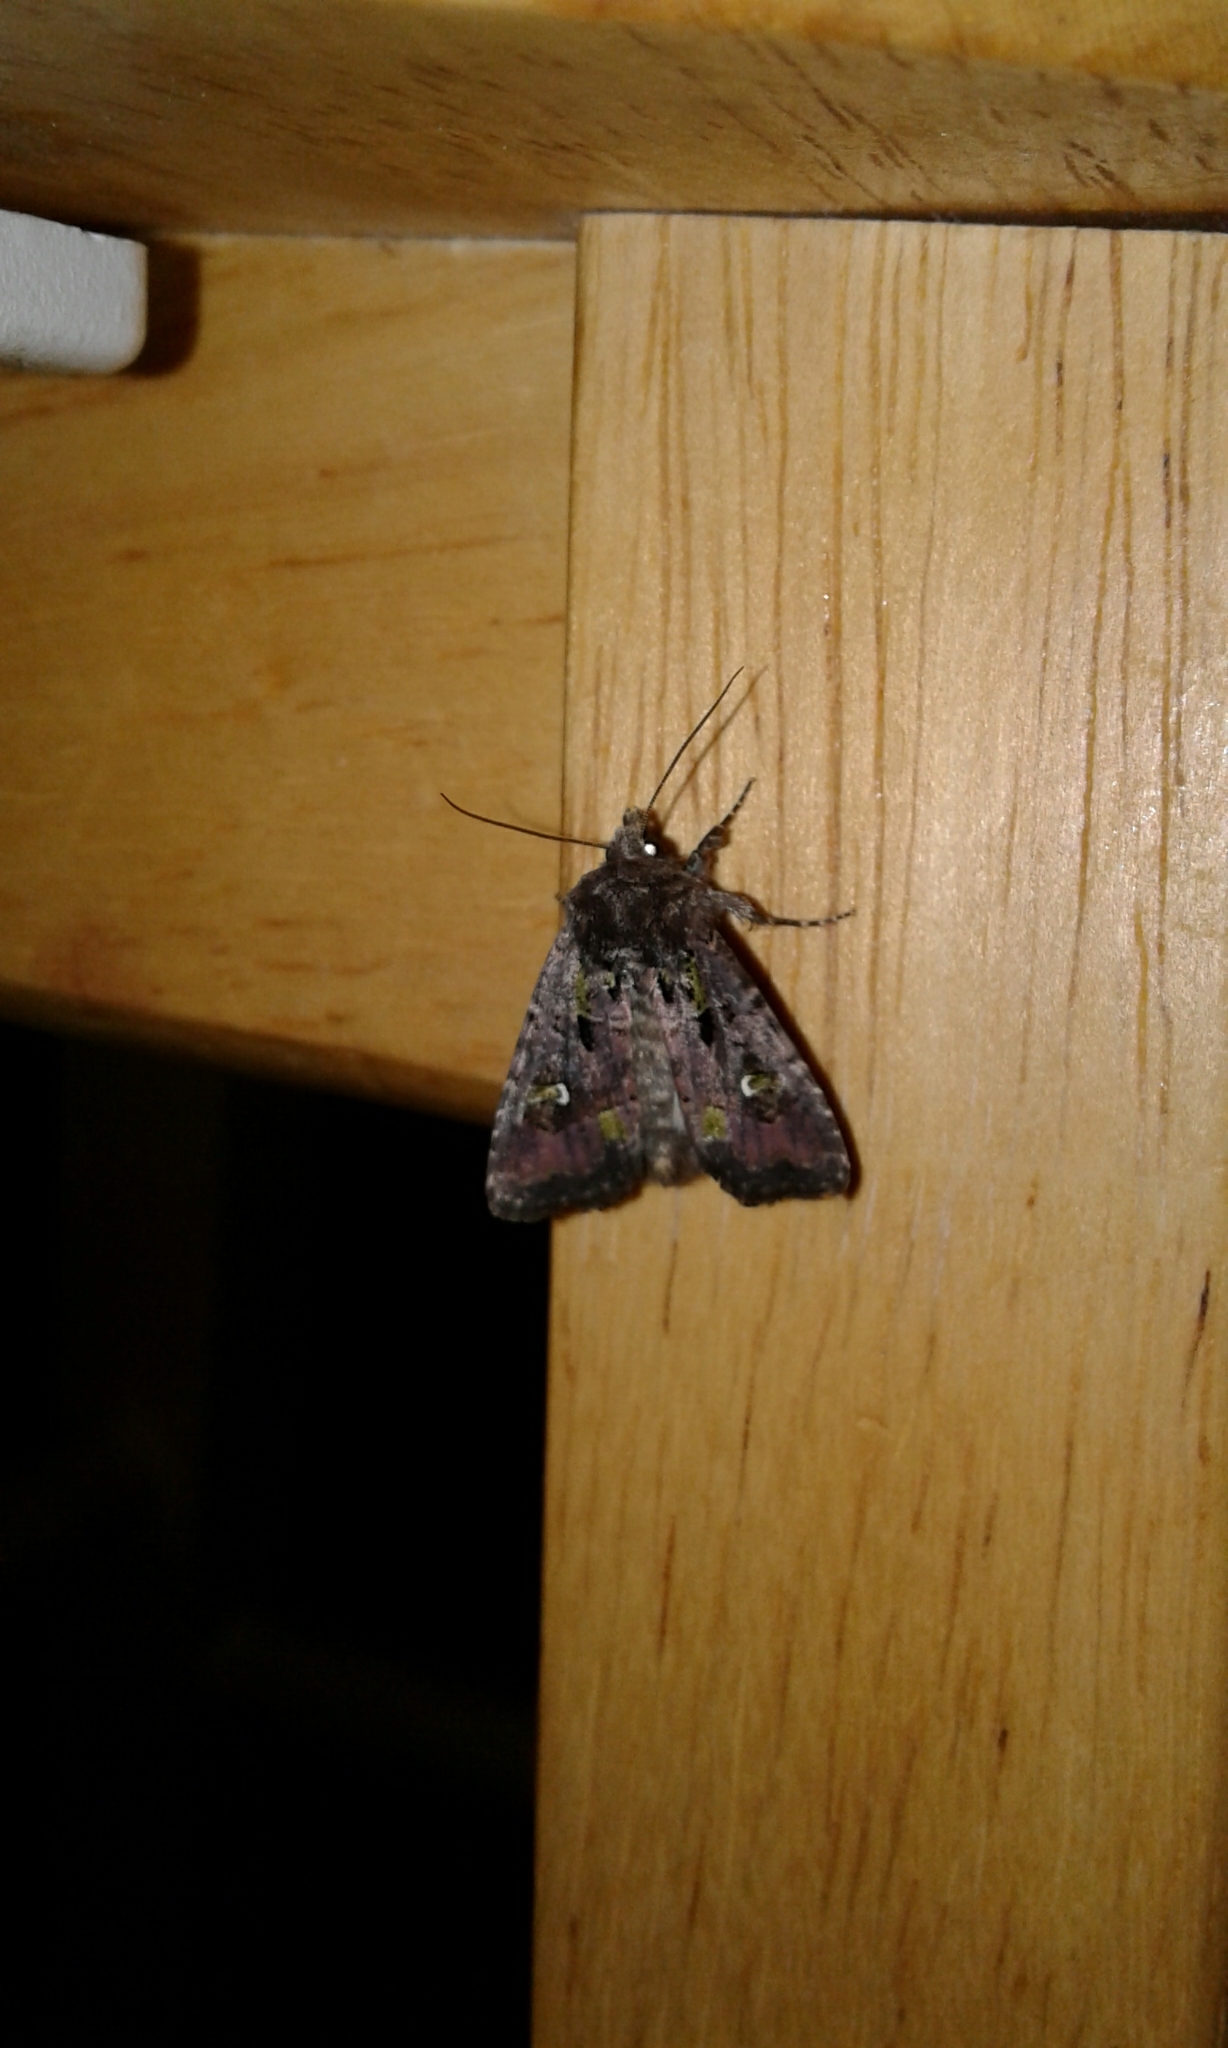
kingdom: Animalia
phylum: Arthropoda
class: Insecta
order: Lepidoptera
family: Noctuidae
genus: Lacinipolia
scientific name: Lacinipolia renigera
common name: Kidney-spotted minor
